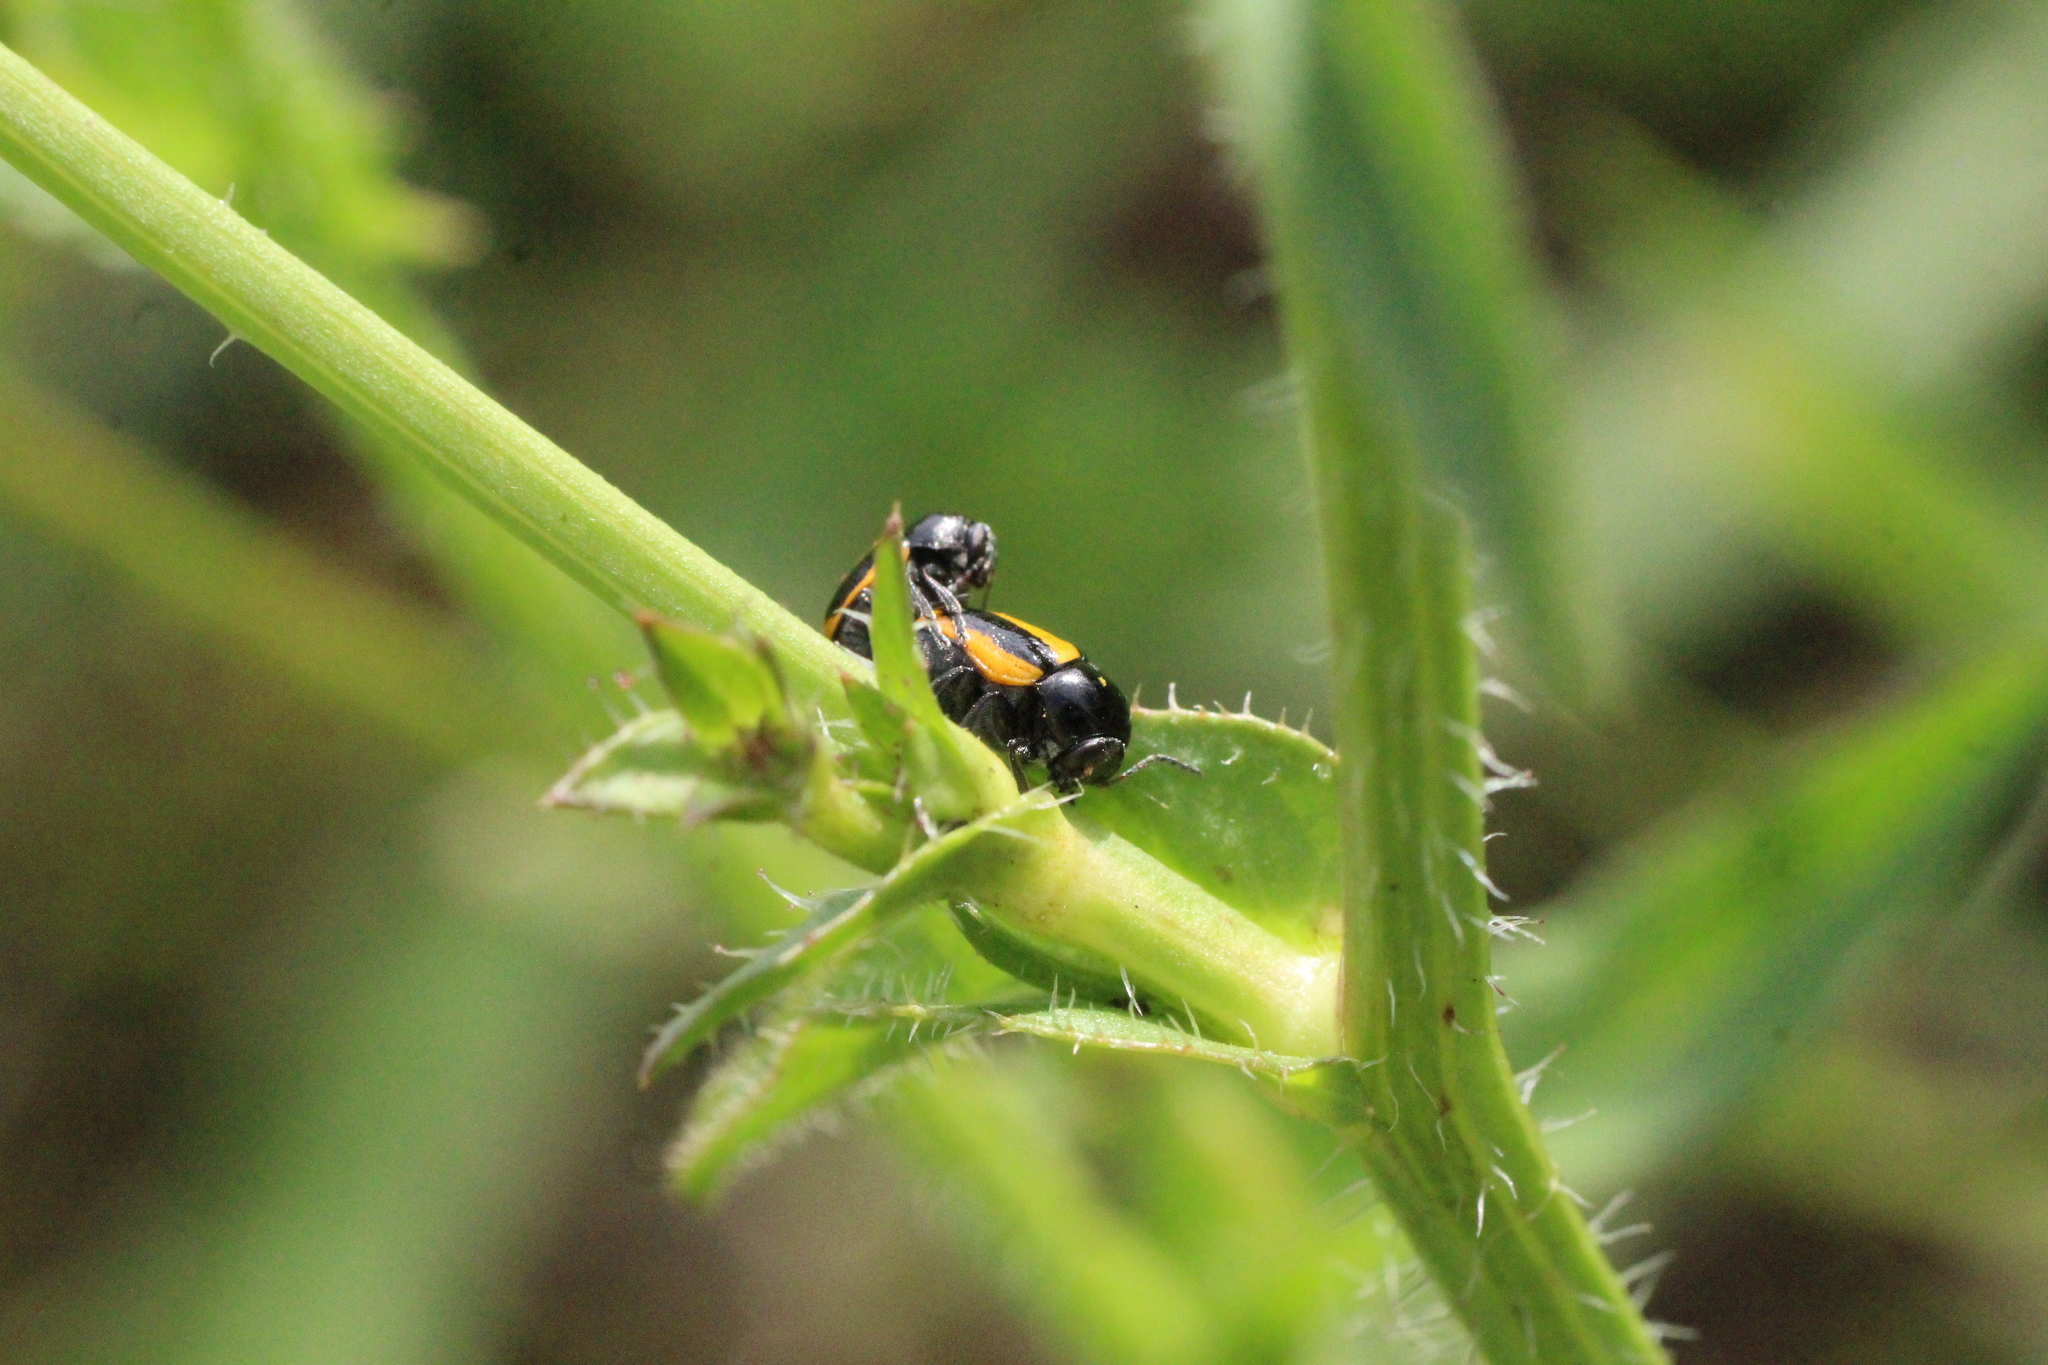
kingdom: Animalia
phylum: Arthropoda
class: Insecta
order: Coleoptera
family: Chrysomelidae
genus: Acalymma
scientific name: Acalymma vittatum
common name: Striped cucumber beetle
